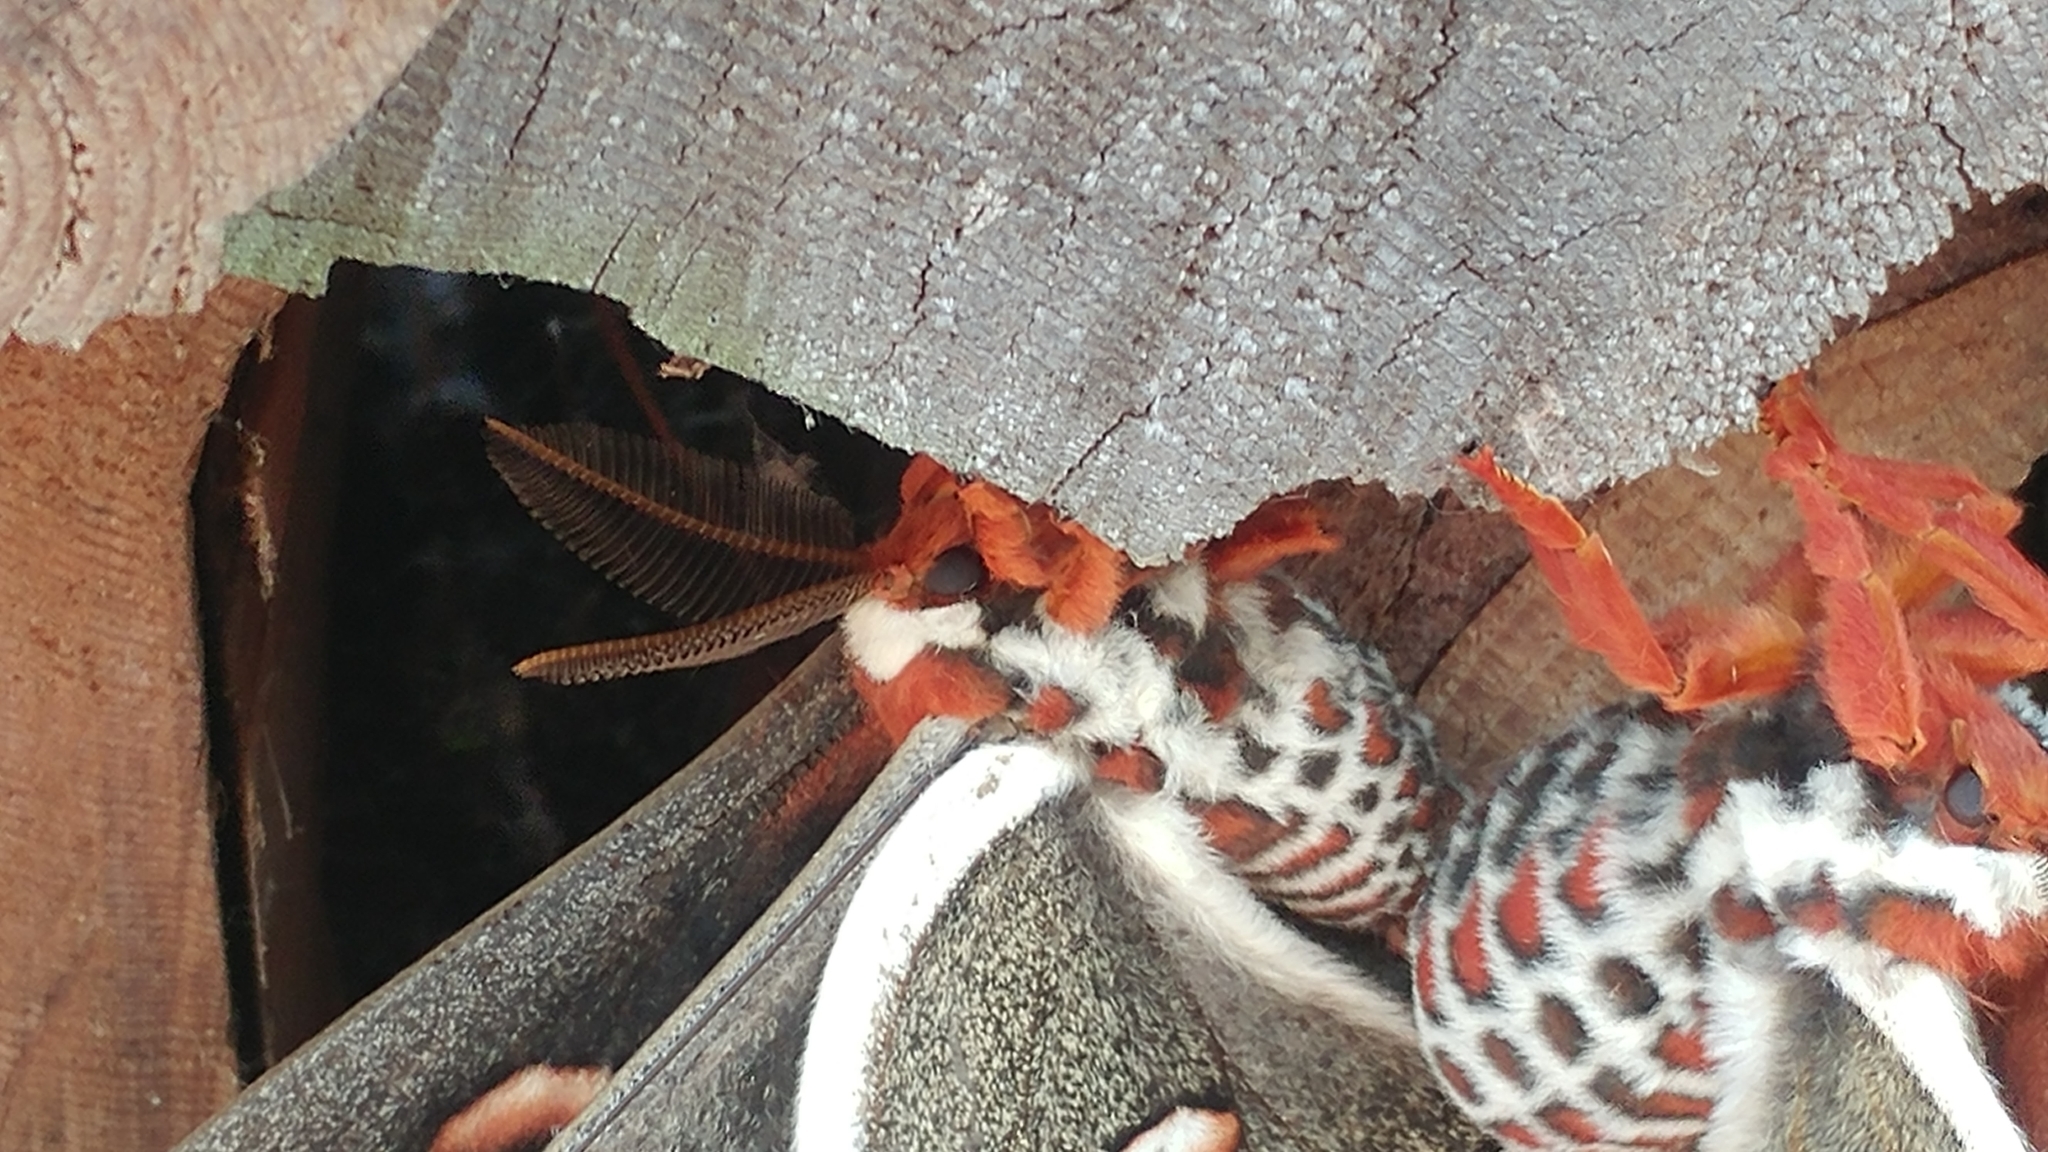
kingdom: Animalia
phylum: Arthropoda
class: Insecta
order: Lepidoptera
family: Saturniidae
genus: Hyalophora
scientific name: Hyalophora cecropia
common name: Cecropia silkmoth
